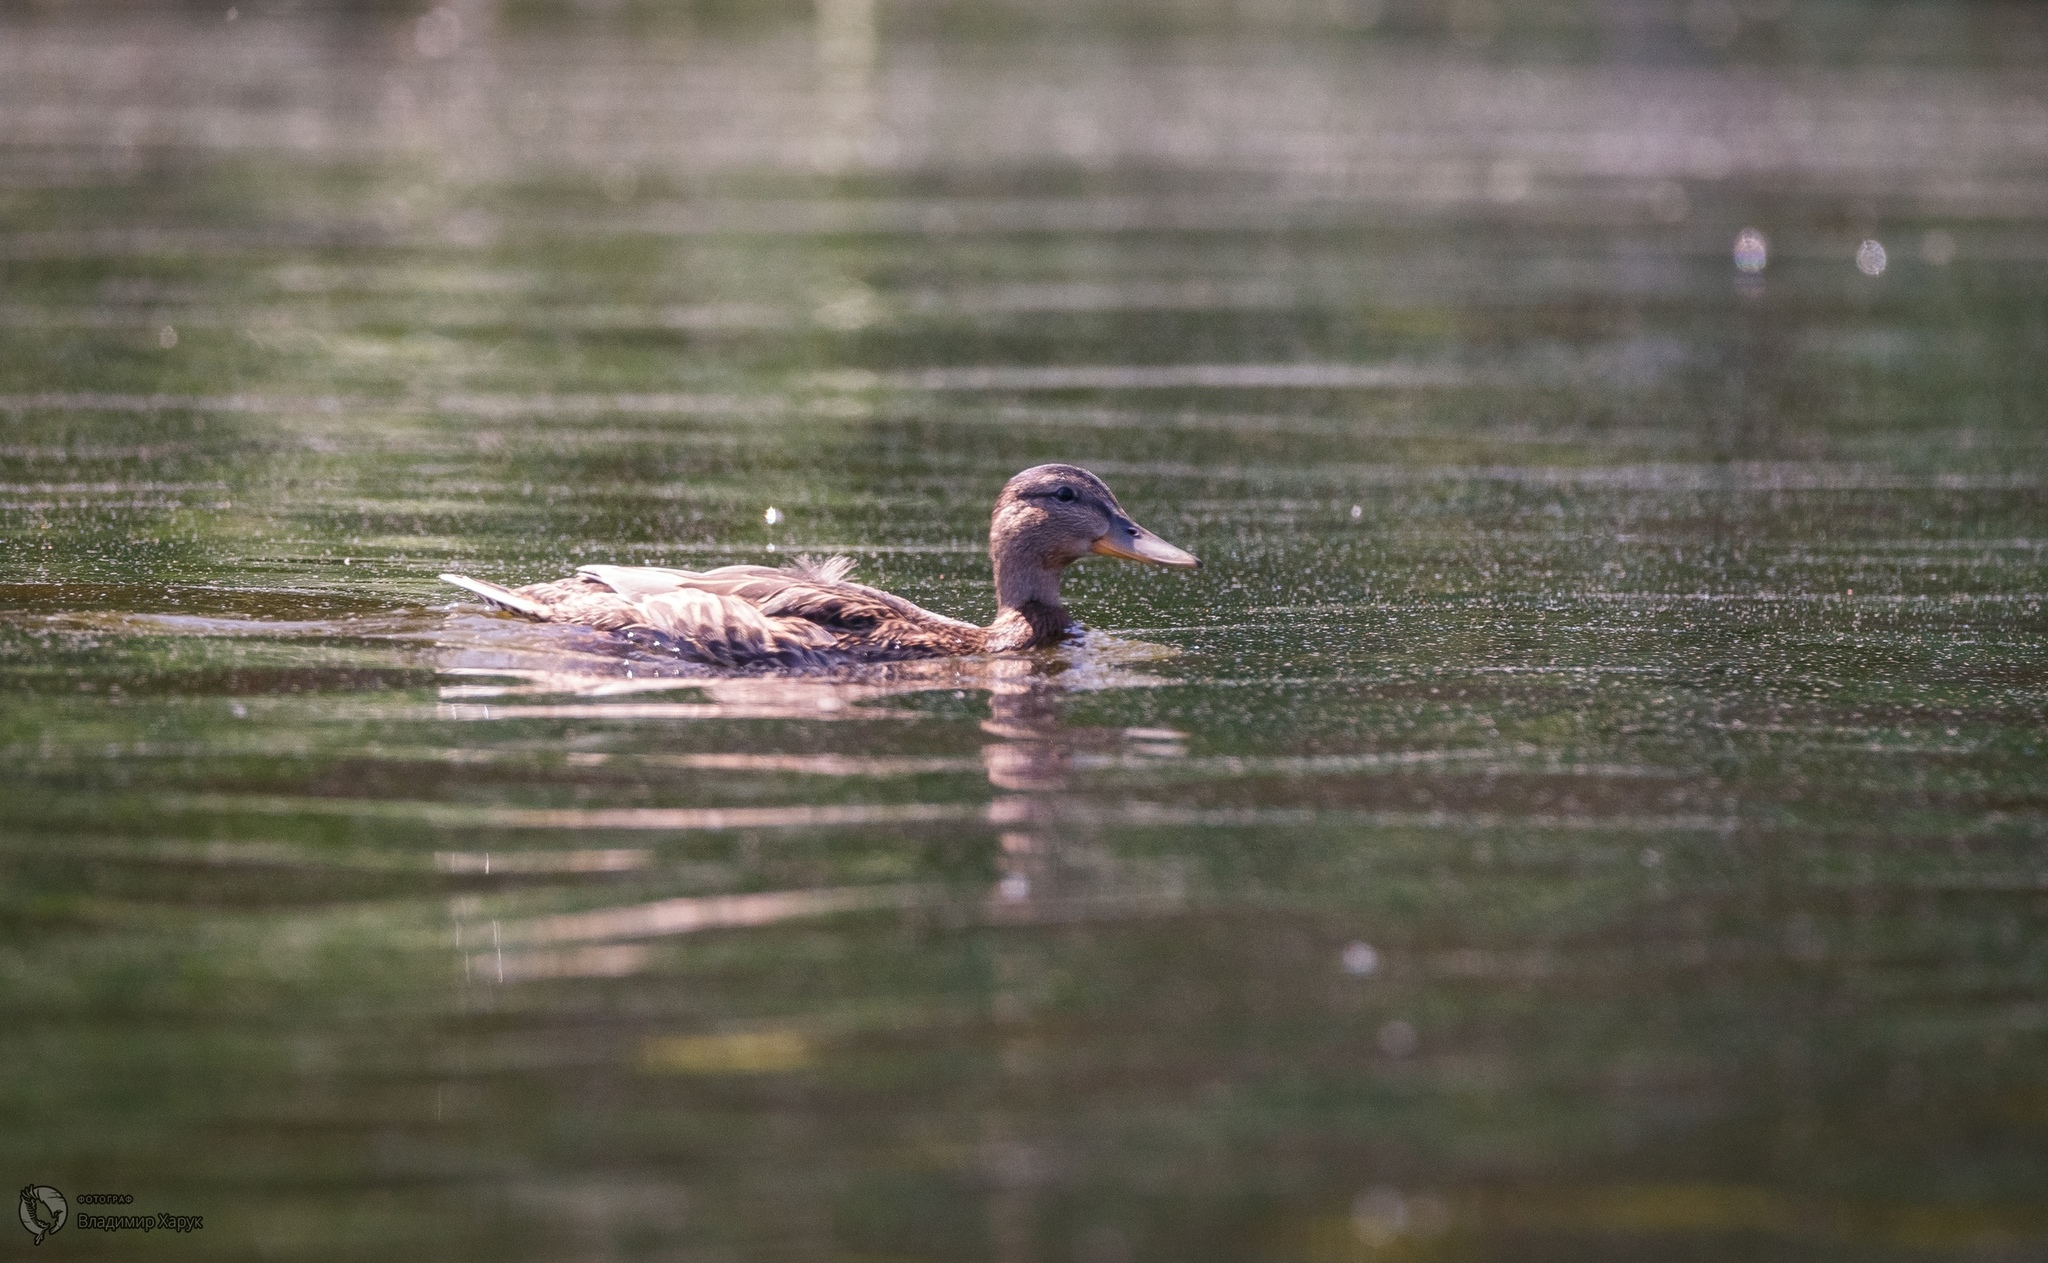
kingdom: Animalia
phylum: Chordata
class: Aves
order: Anseriformes
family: Anatidae
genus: Anas
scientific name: Anas platyrhynchos
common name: Mallard
